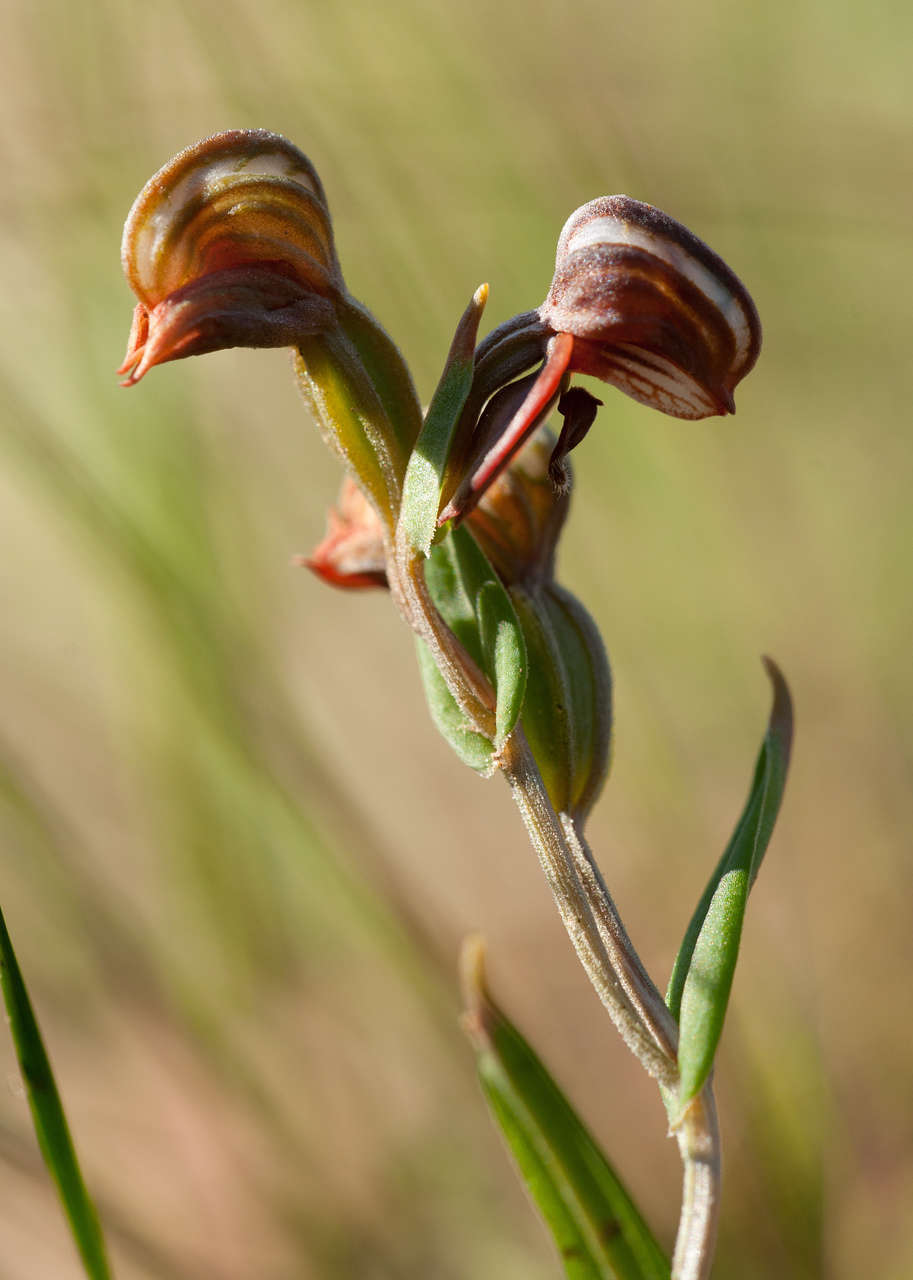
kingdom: Plantae
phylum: Tracheophyta
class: Liliopsida
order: Asparagales
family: Orchidaceae
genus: Pterostylis
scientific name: Pterostylis sanguinea
